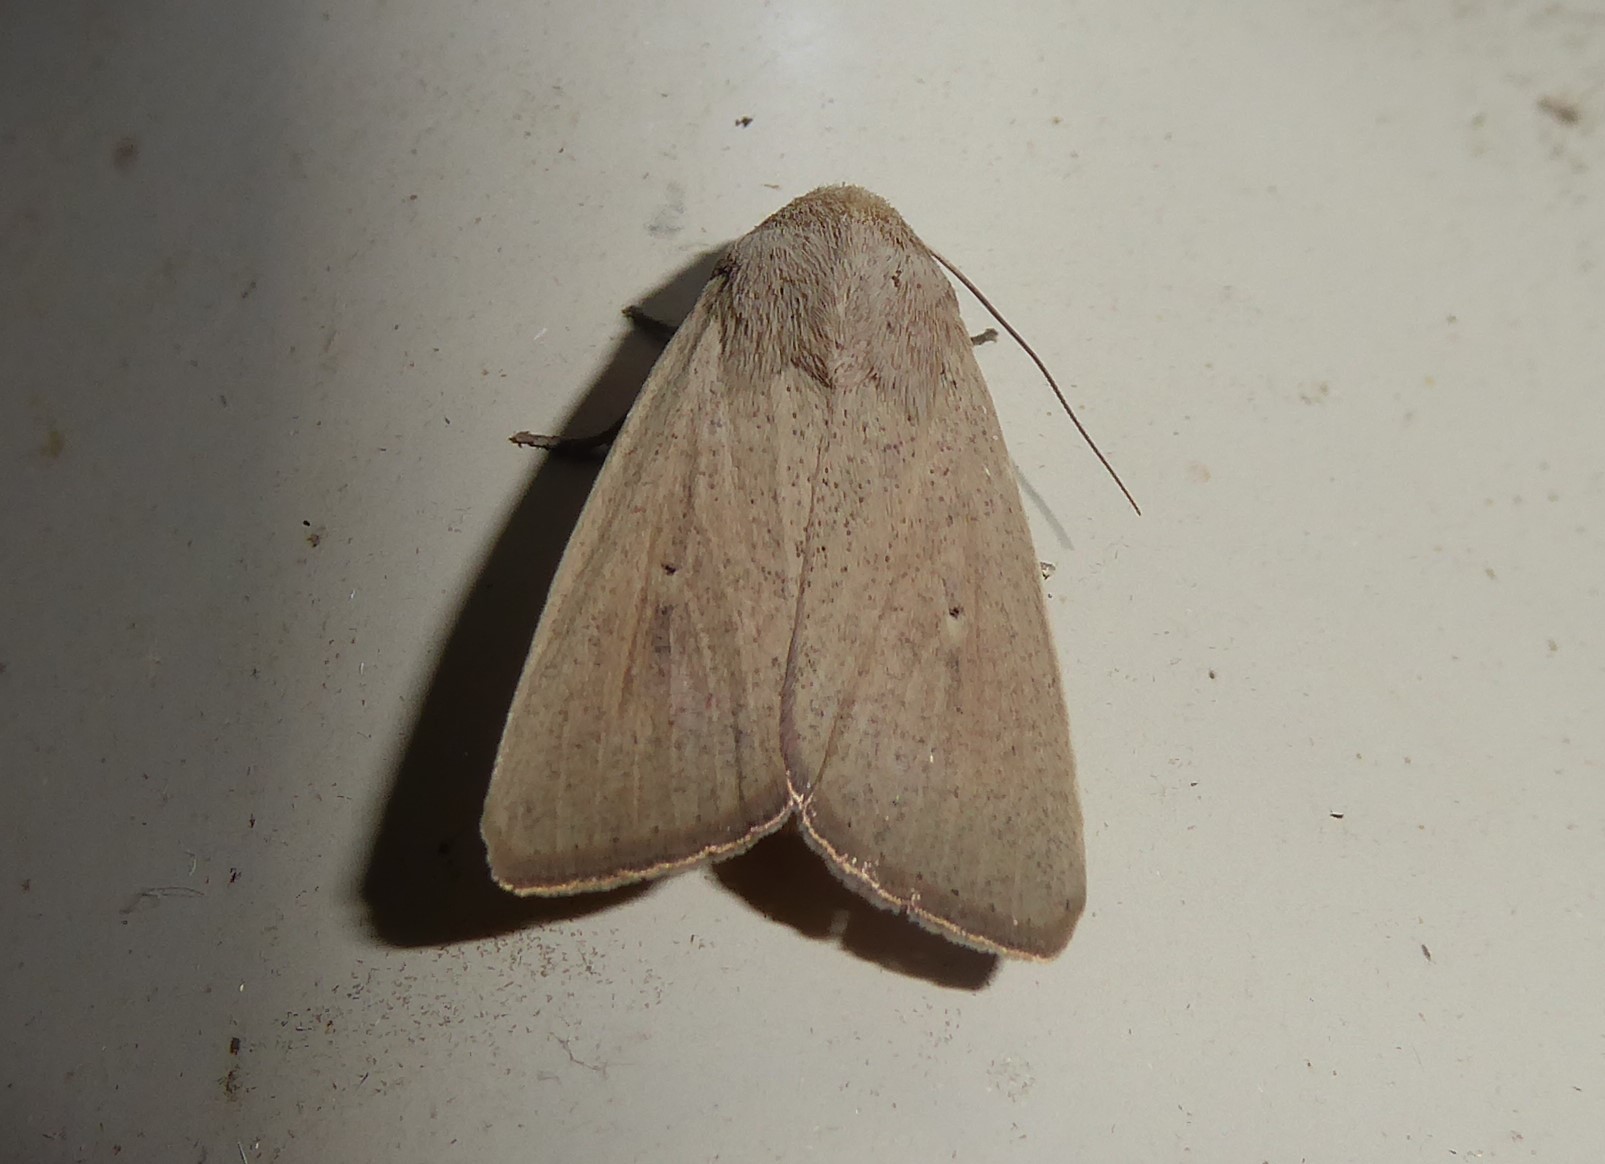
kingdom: Animalia
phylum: Arthropoda
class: Insecta
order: Lepidoptera
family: Noctuidae
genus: Leucania
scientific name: Leucania abdominalis
